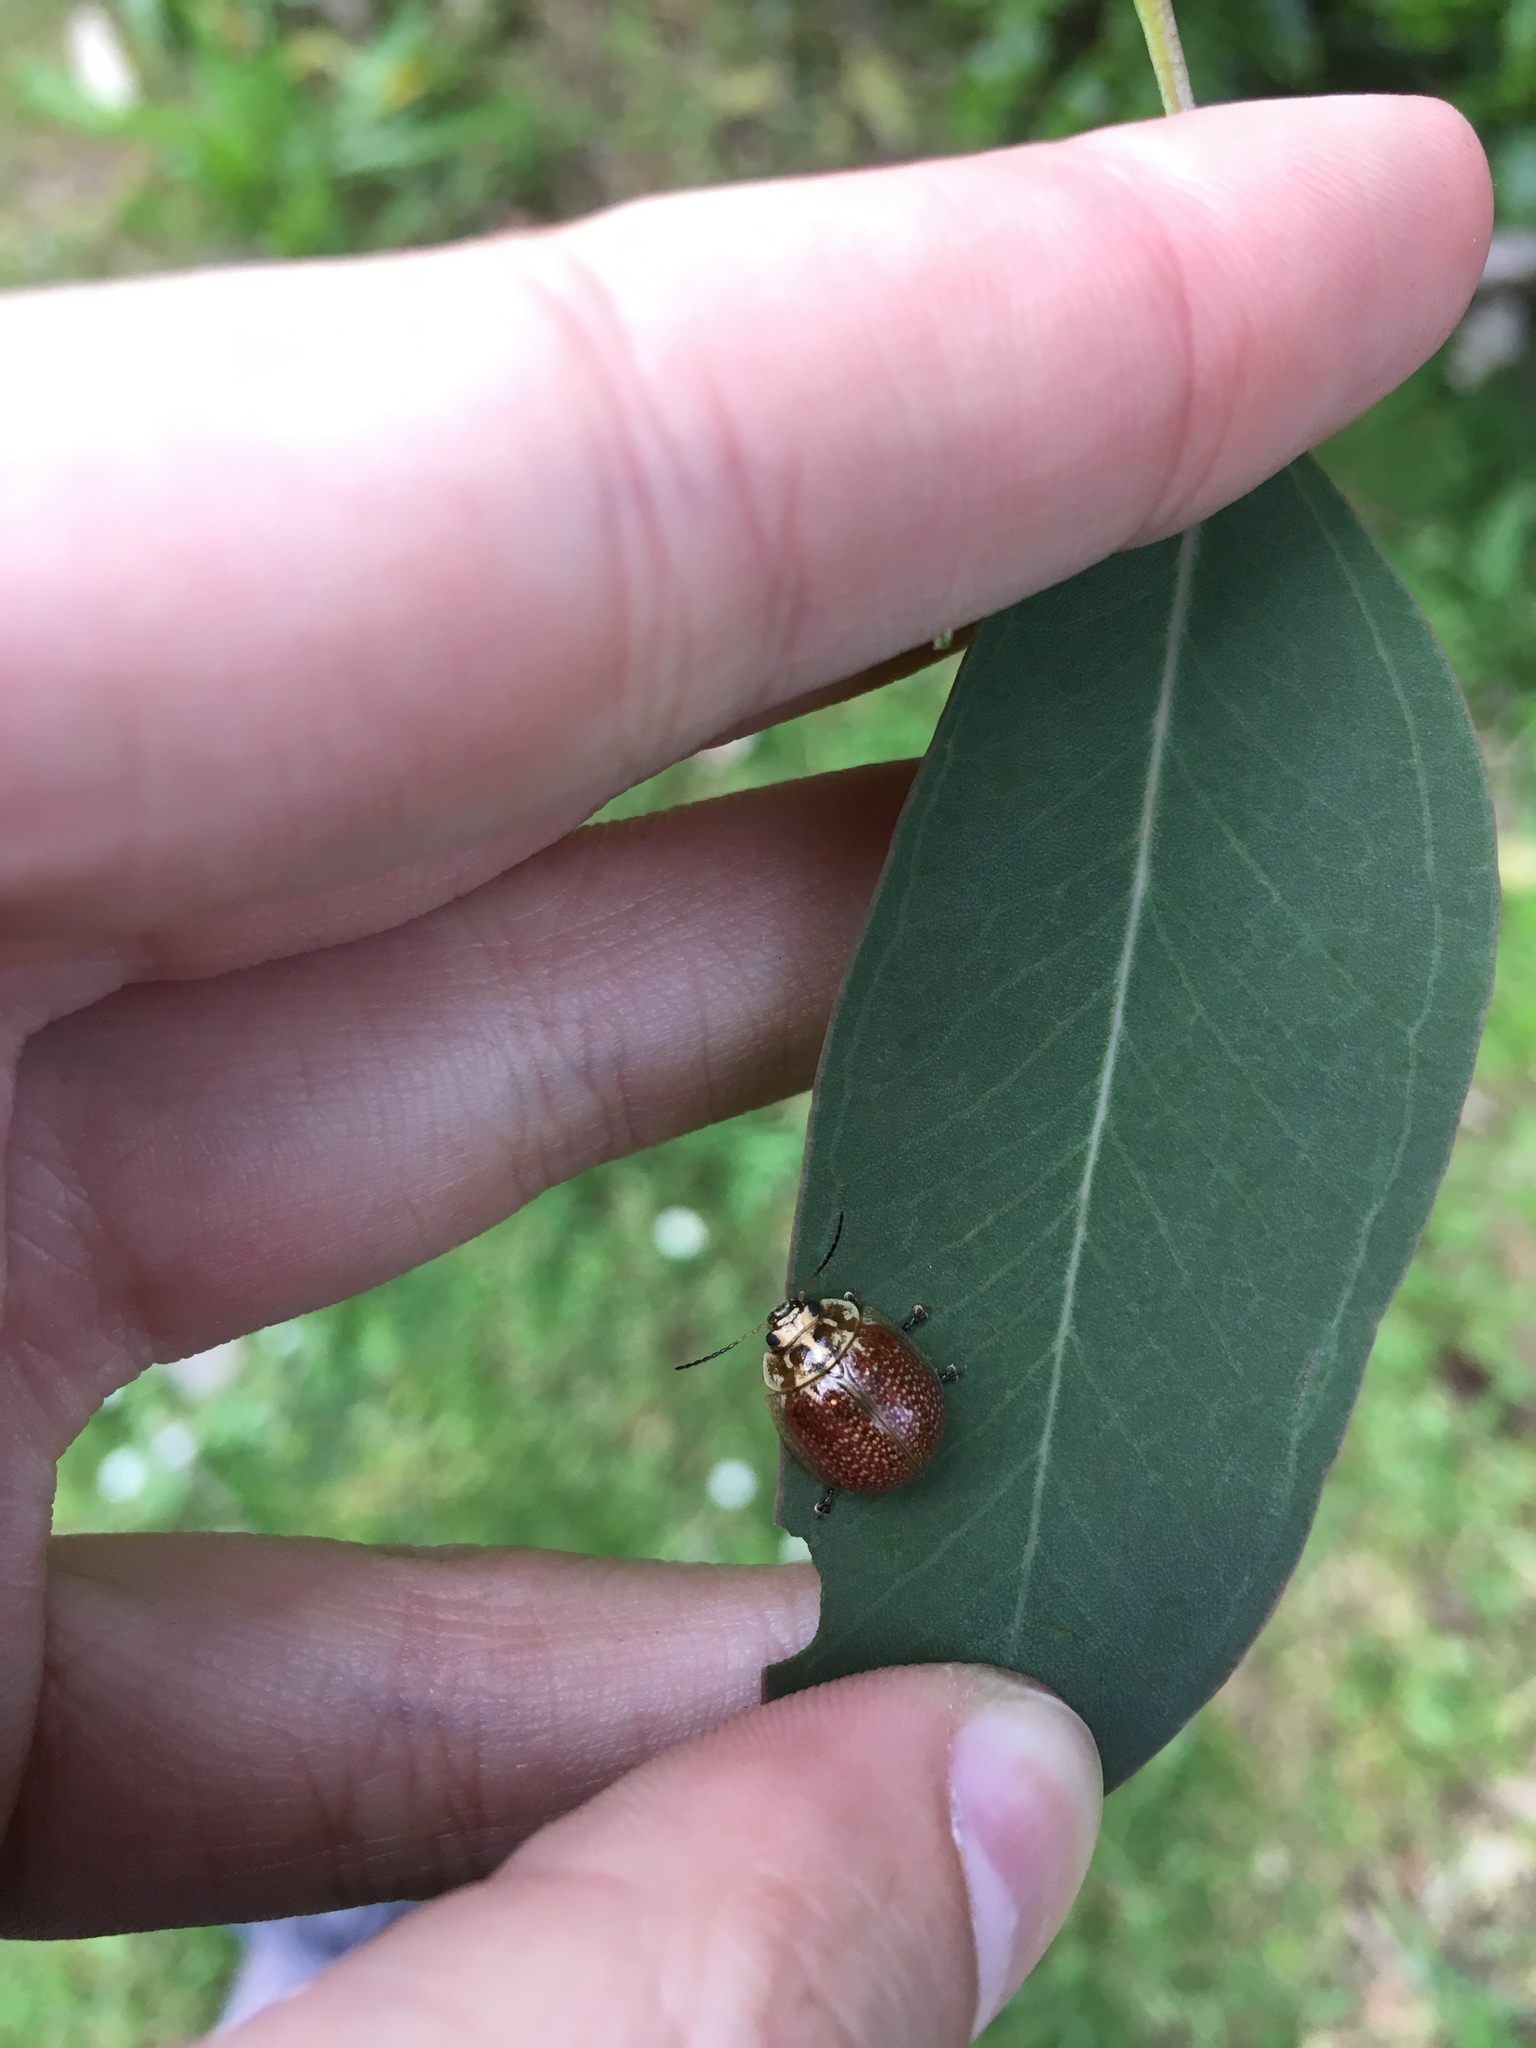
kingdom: Animalia
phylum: Arthropoda
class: Insecta
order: Coleoptera
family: Chrysomelidae
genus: Paropsisterna
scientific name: Paropsisterna cloelia
